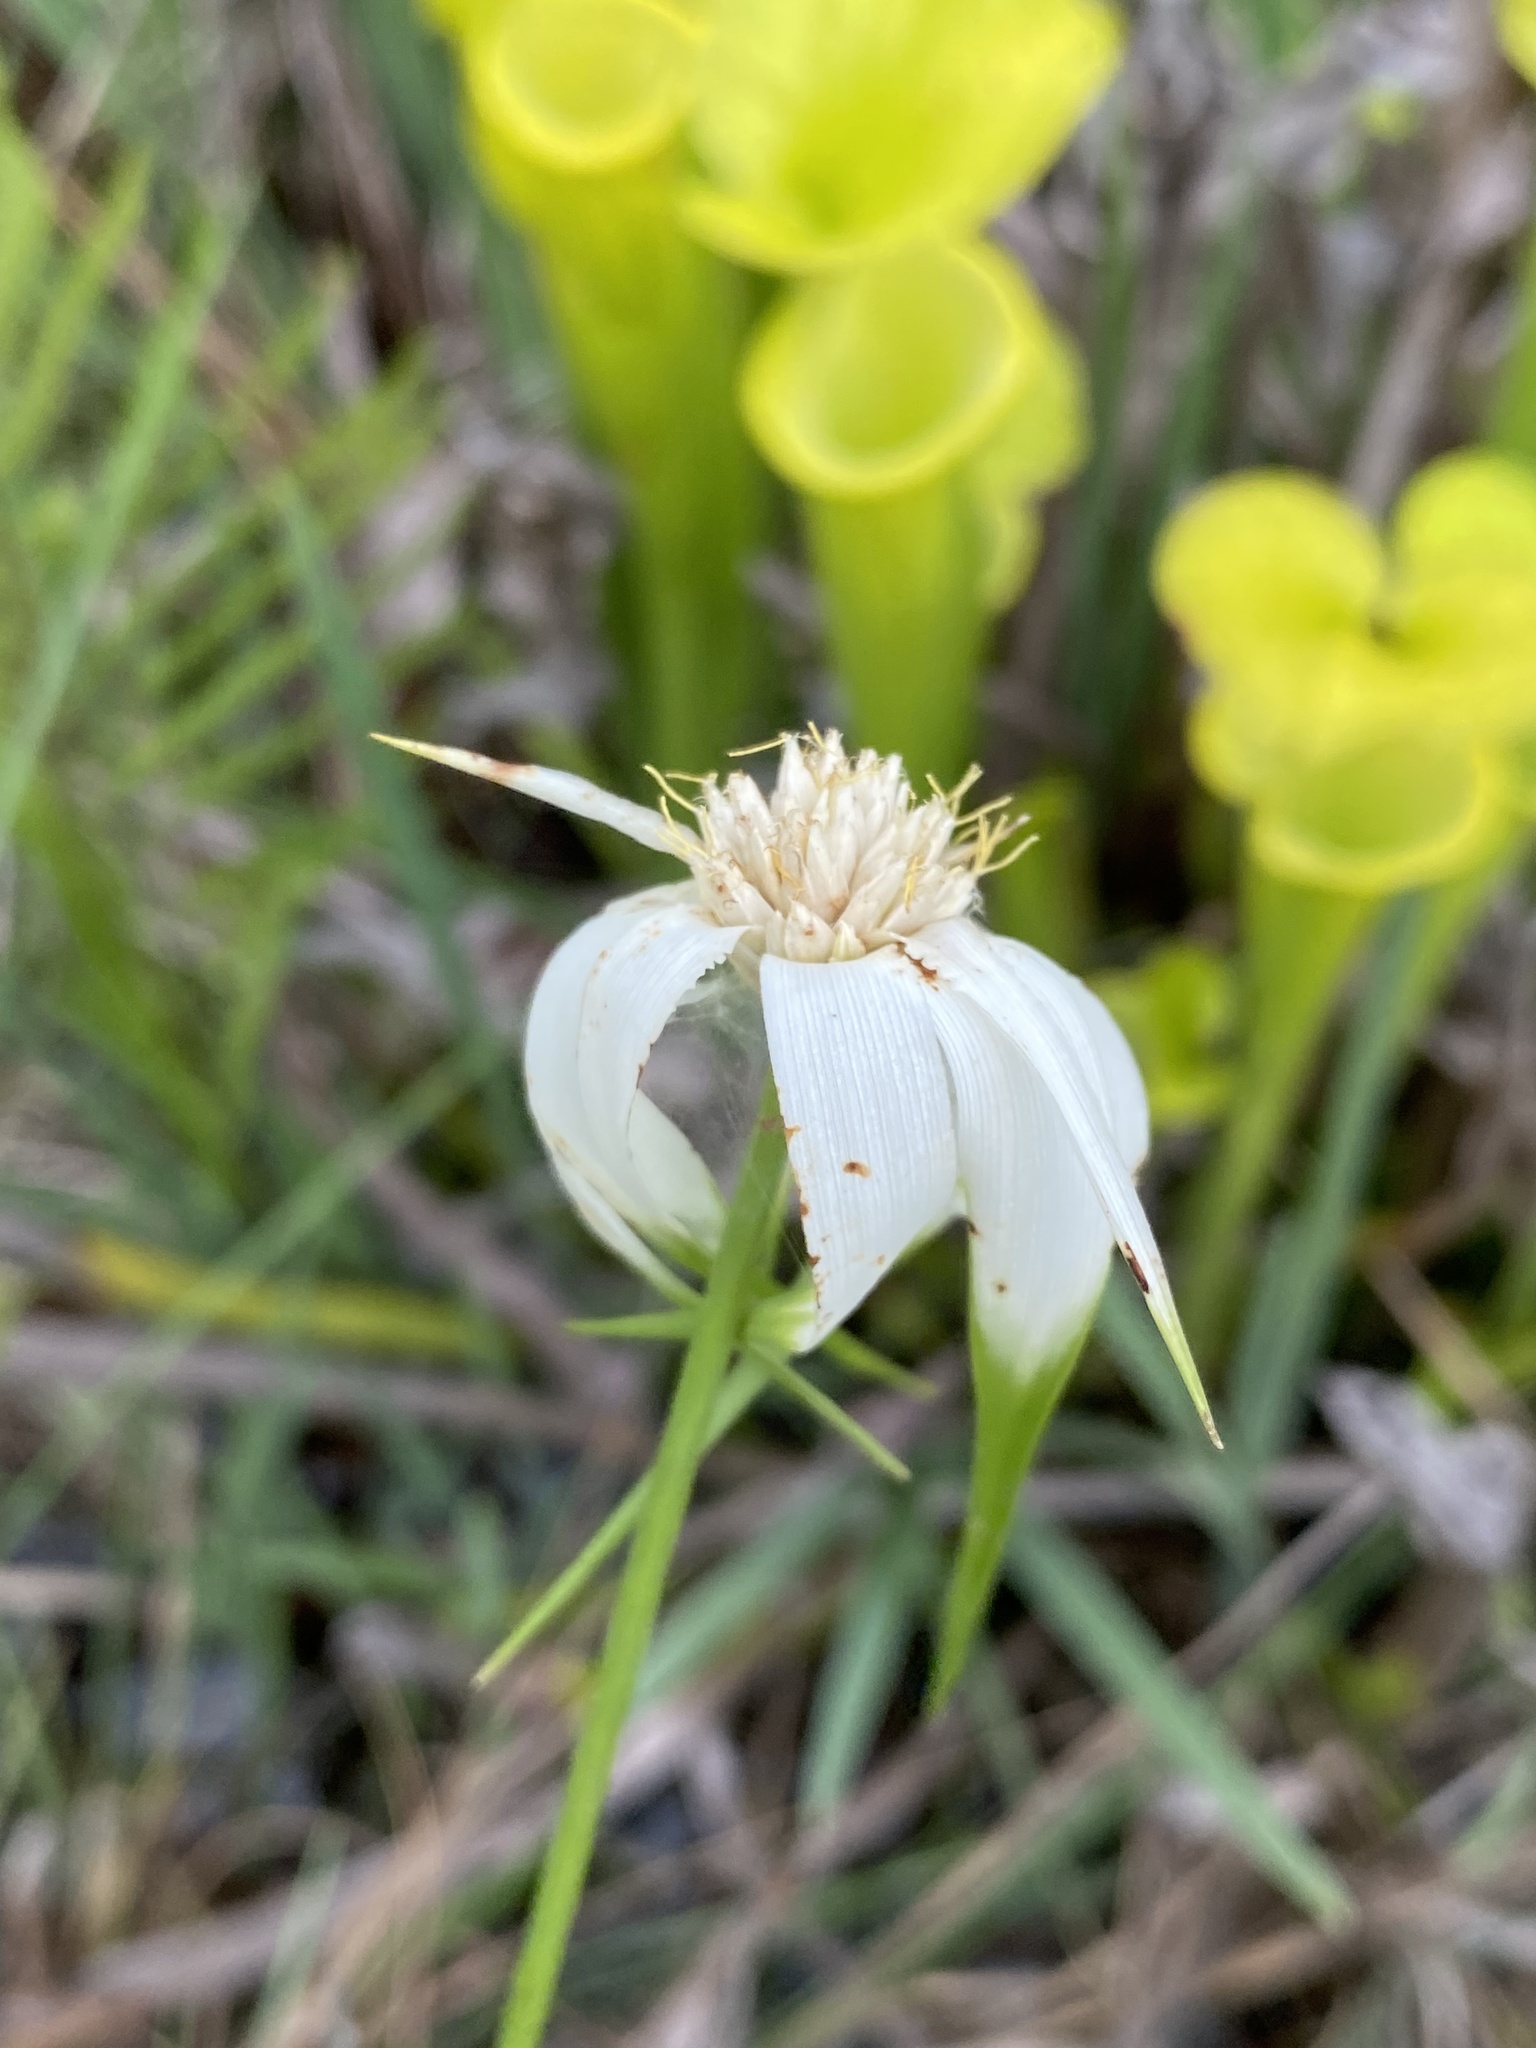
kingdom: Plantae
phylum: Tracheophyta
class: Liliopsida
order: Poales
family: Cyperaceae
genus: Rhynchospora
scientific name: Rhynchospora latifolia
